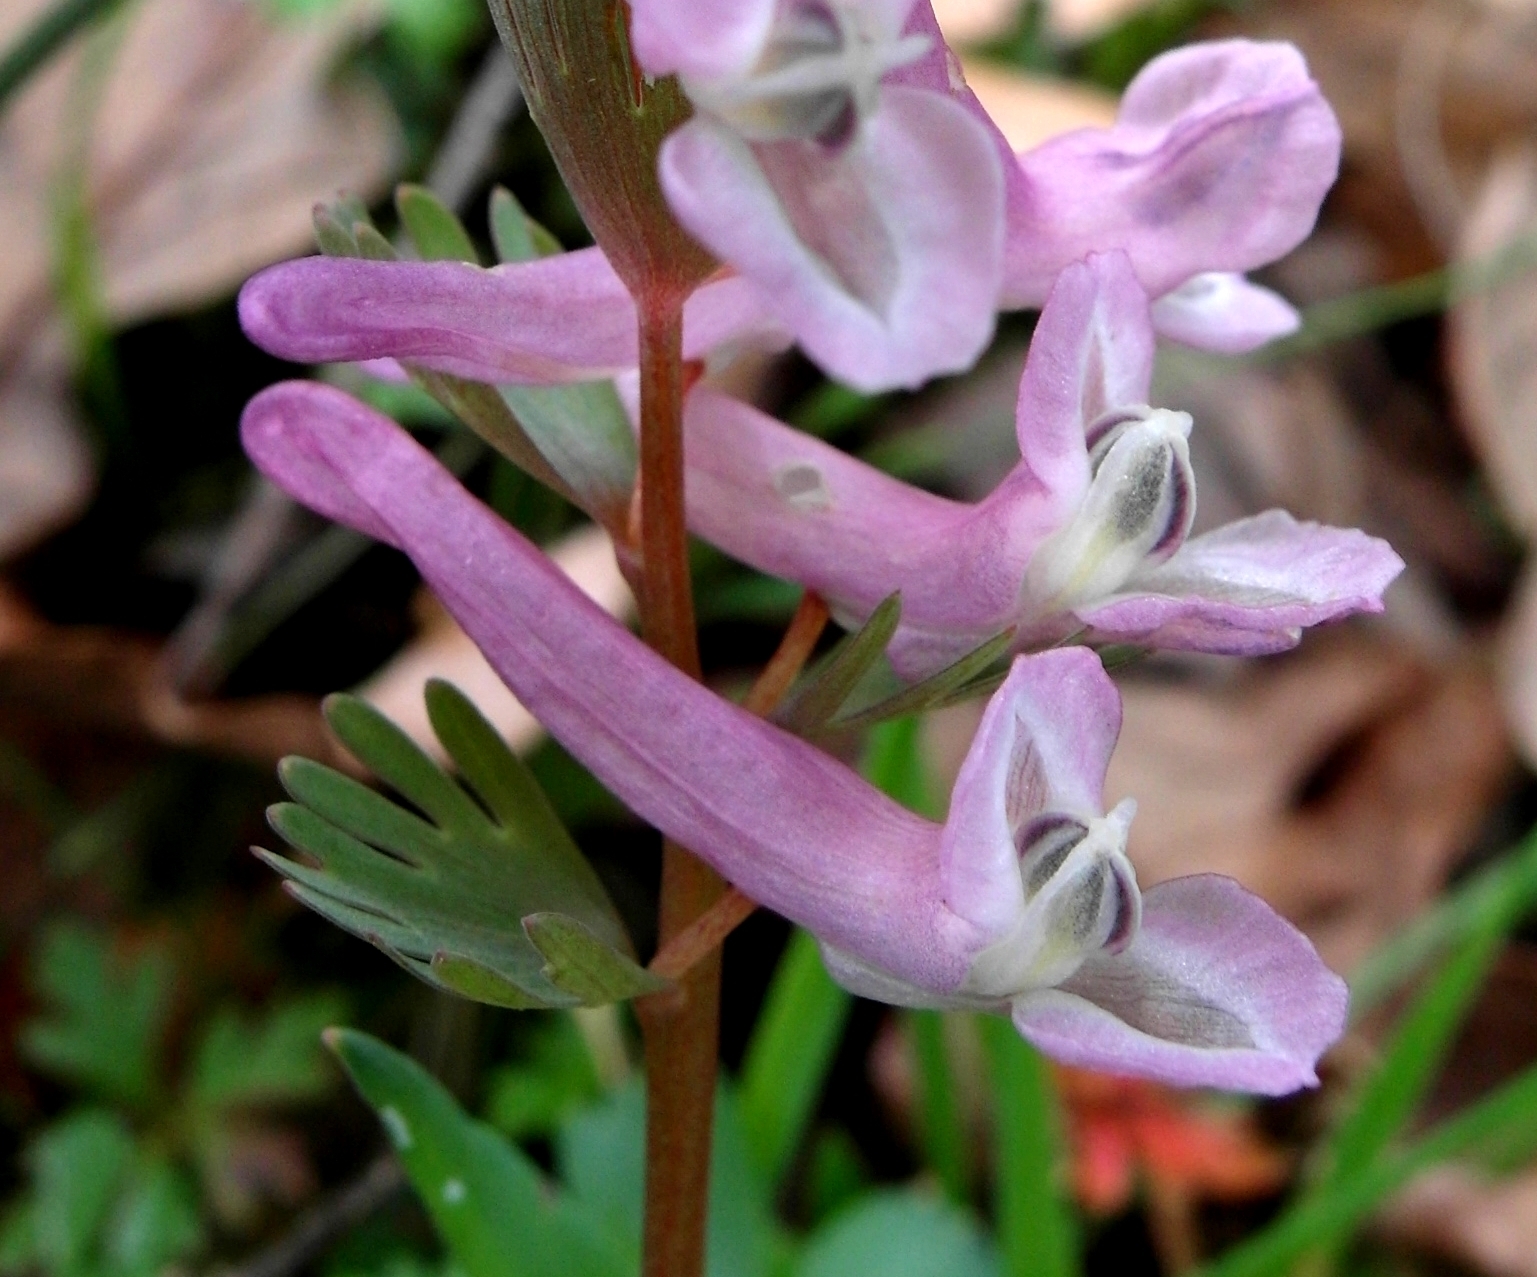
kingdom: Plantae
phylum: Tracheophyta
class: Magnoliopsida
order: Ranunculales
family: Papaveraceae
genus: Corydalis
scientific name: Corydalis solida
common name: Bird-in-a-bush
